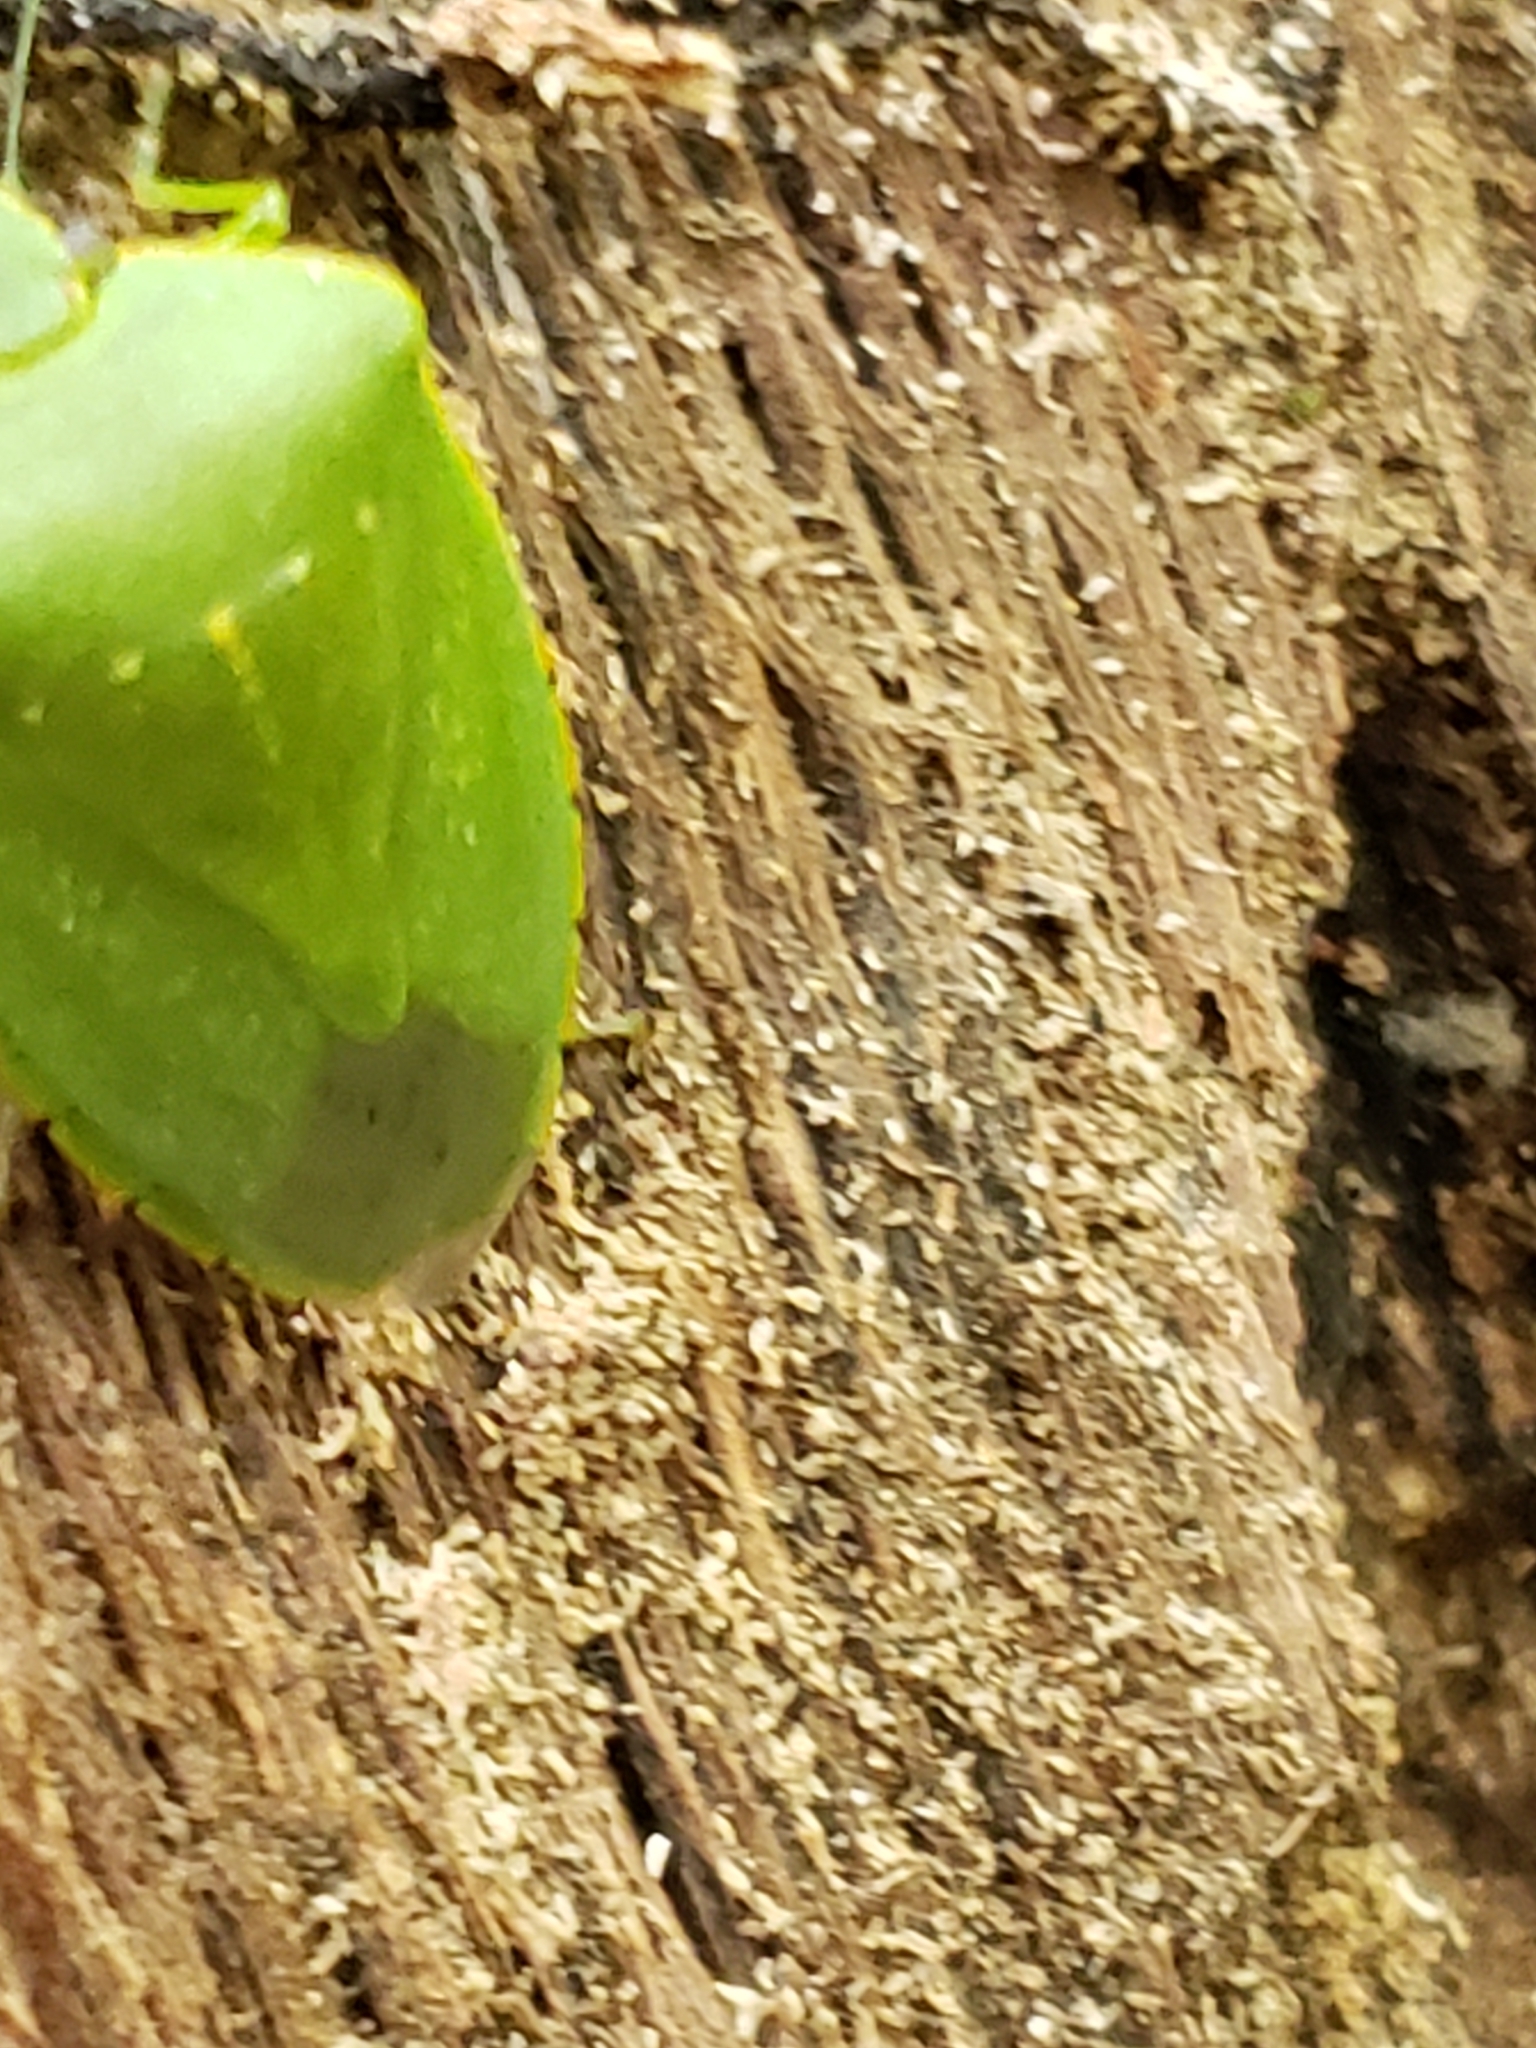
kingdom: Animalia
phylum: Arthropoda
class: Insecta
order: Hemiptera
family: Pentatomidae
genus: Chinavia
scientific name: Chinavia hilaris
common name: Green stink bug
